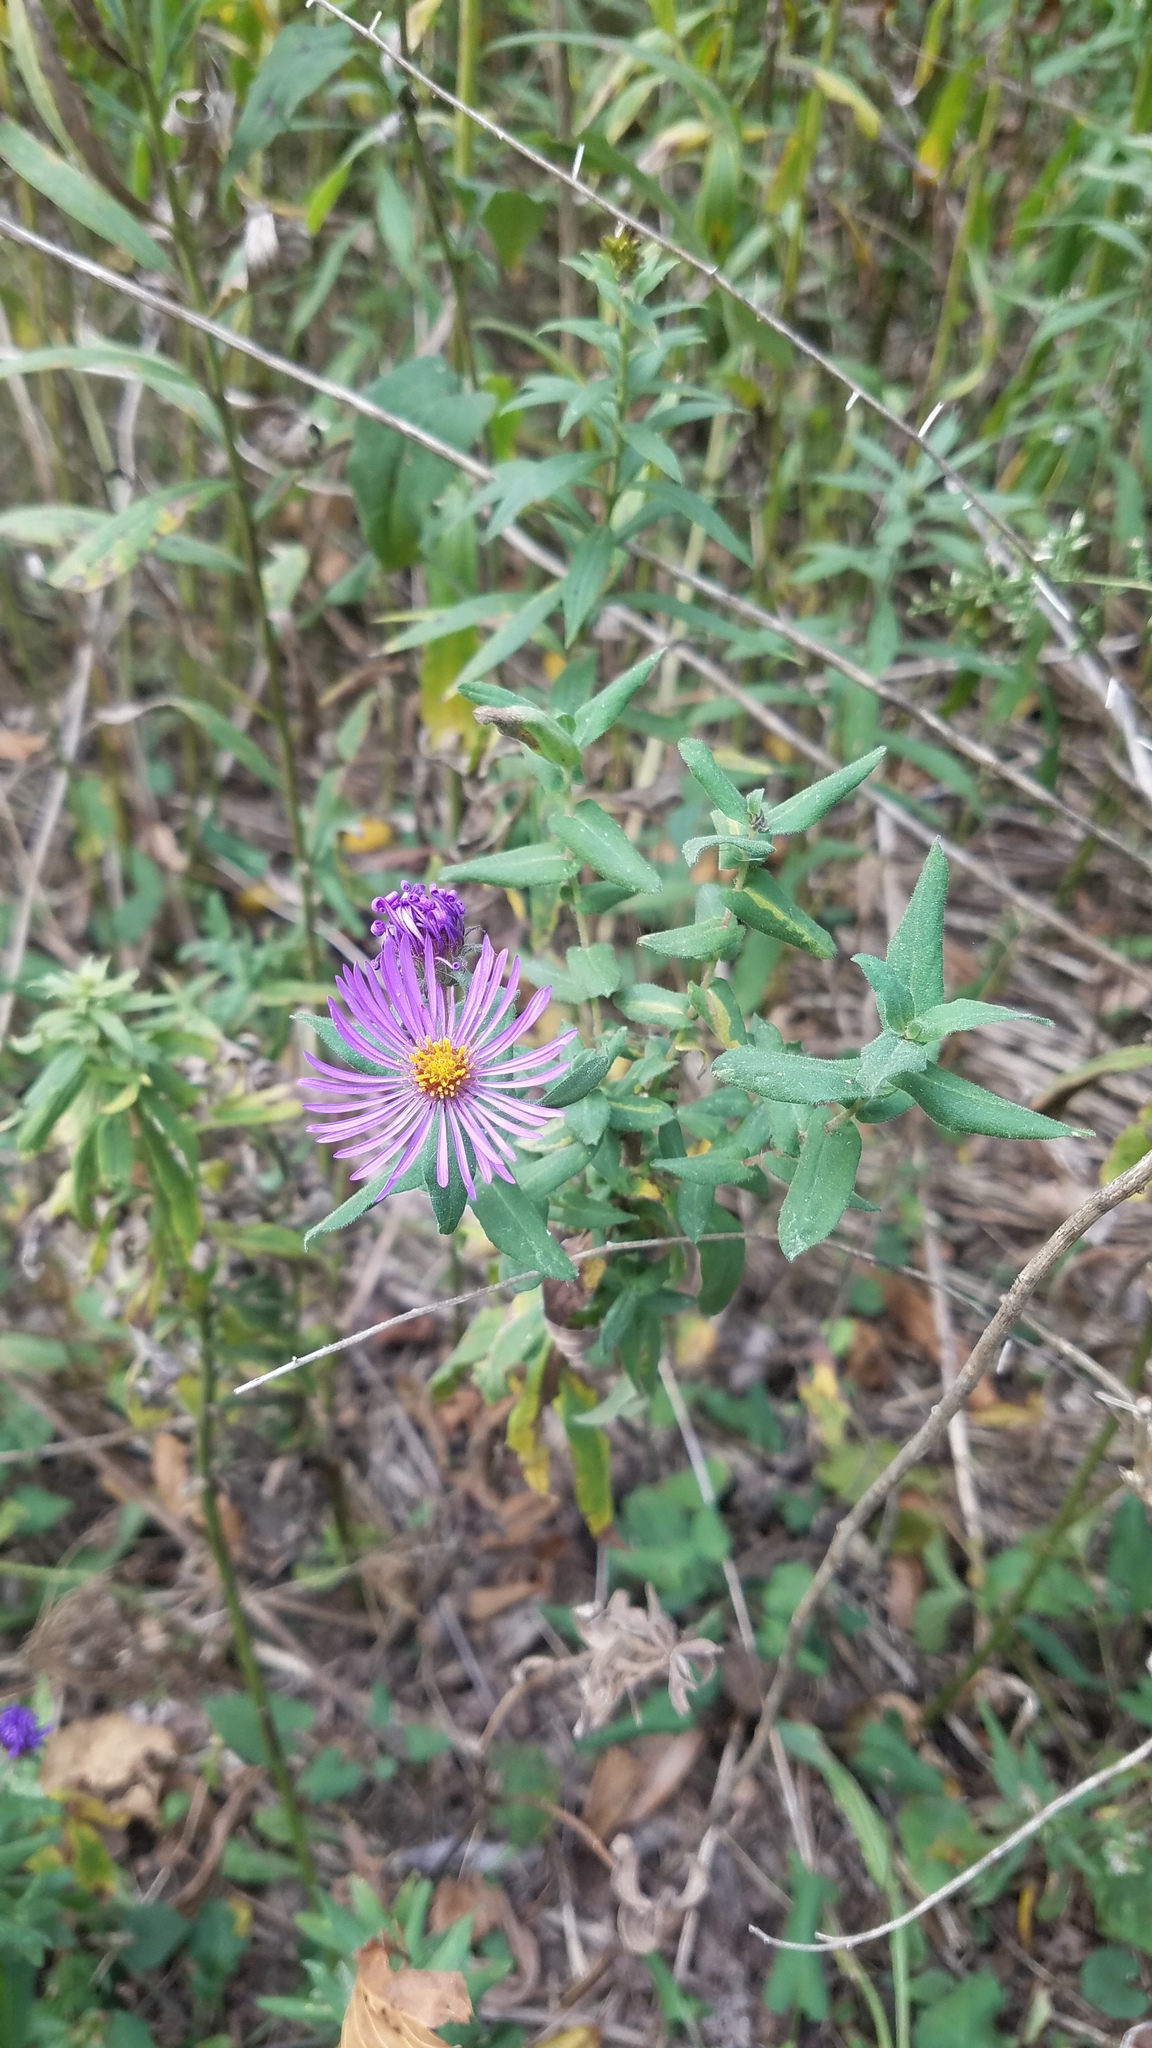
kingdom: Plantae
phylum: Tracheophyta
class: Magnoliopsida
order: Asterales
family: Asteraceae
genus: Symphyotrichum
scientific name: Symphyotrichum novae-angliae
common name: Michaelmas daisy
